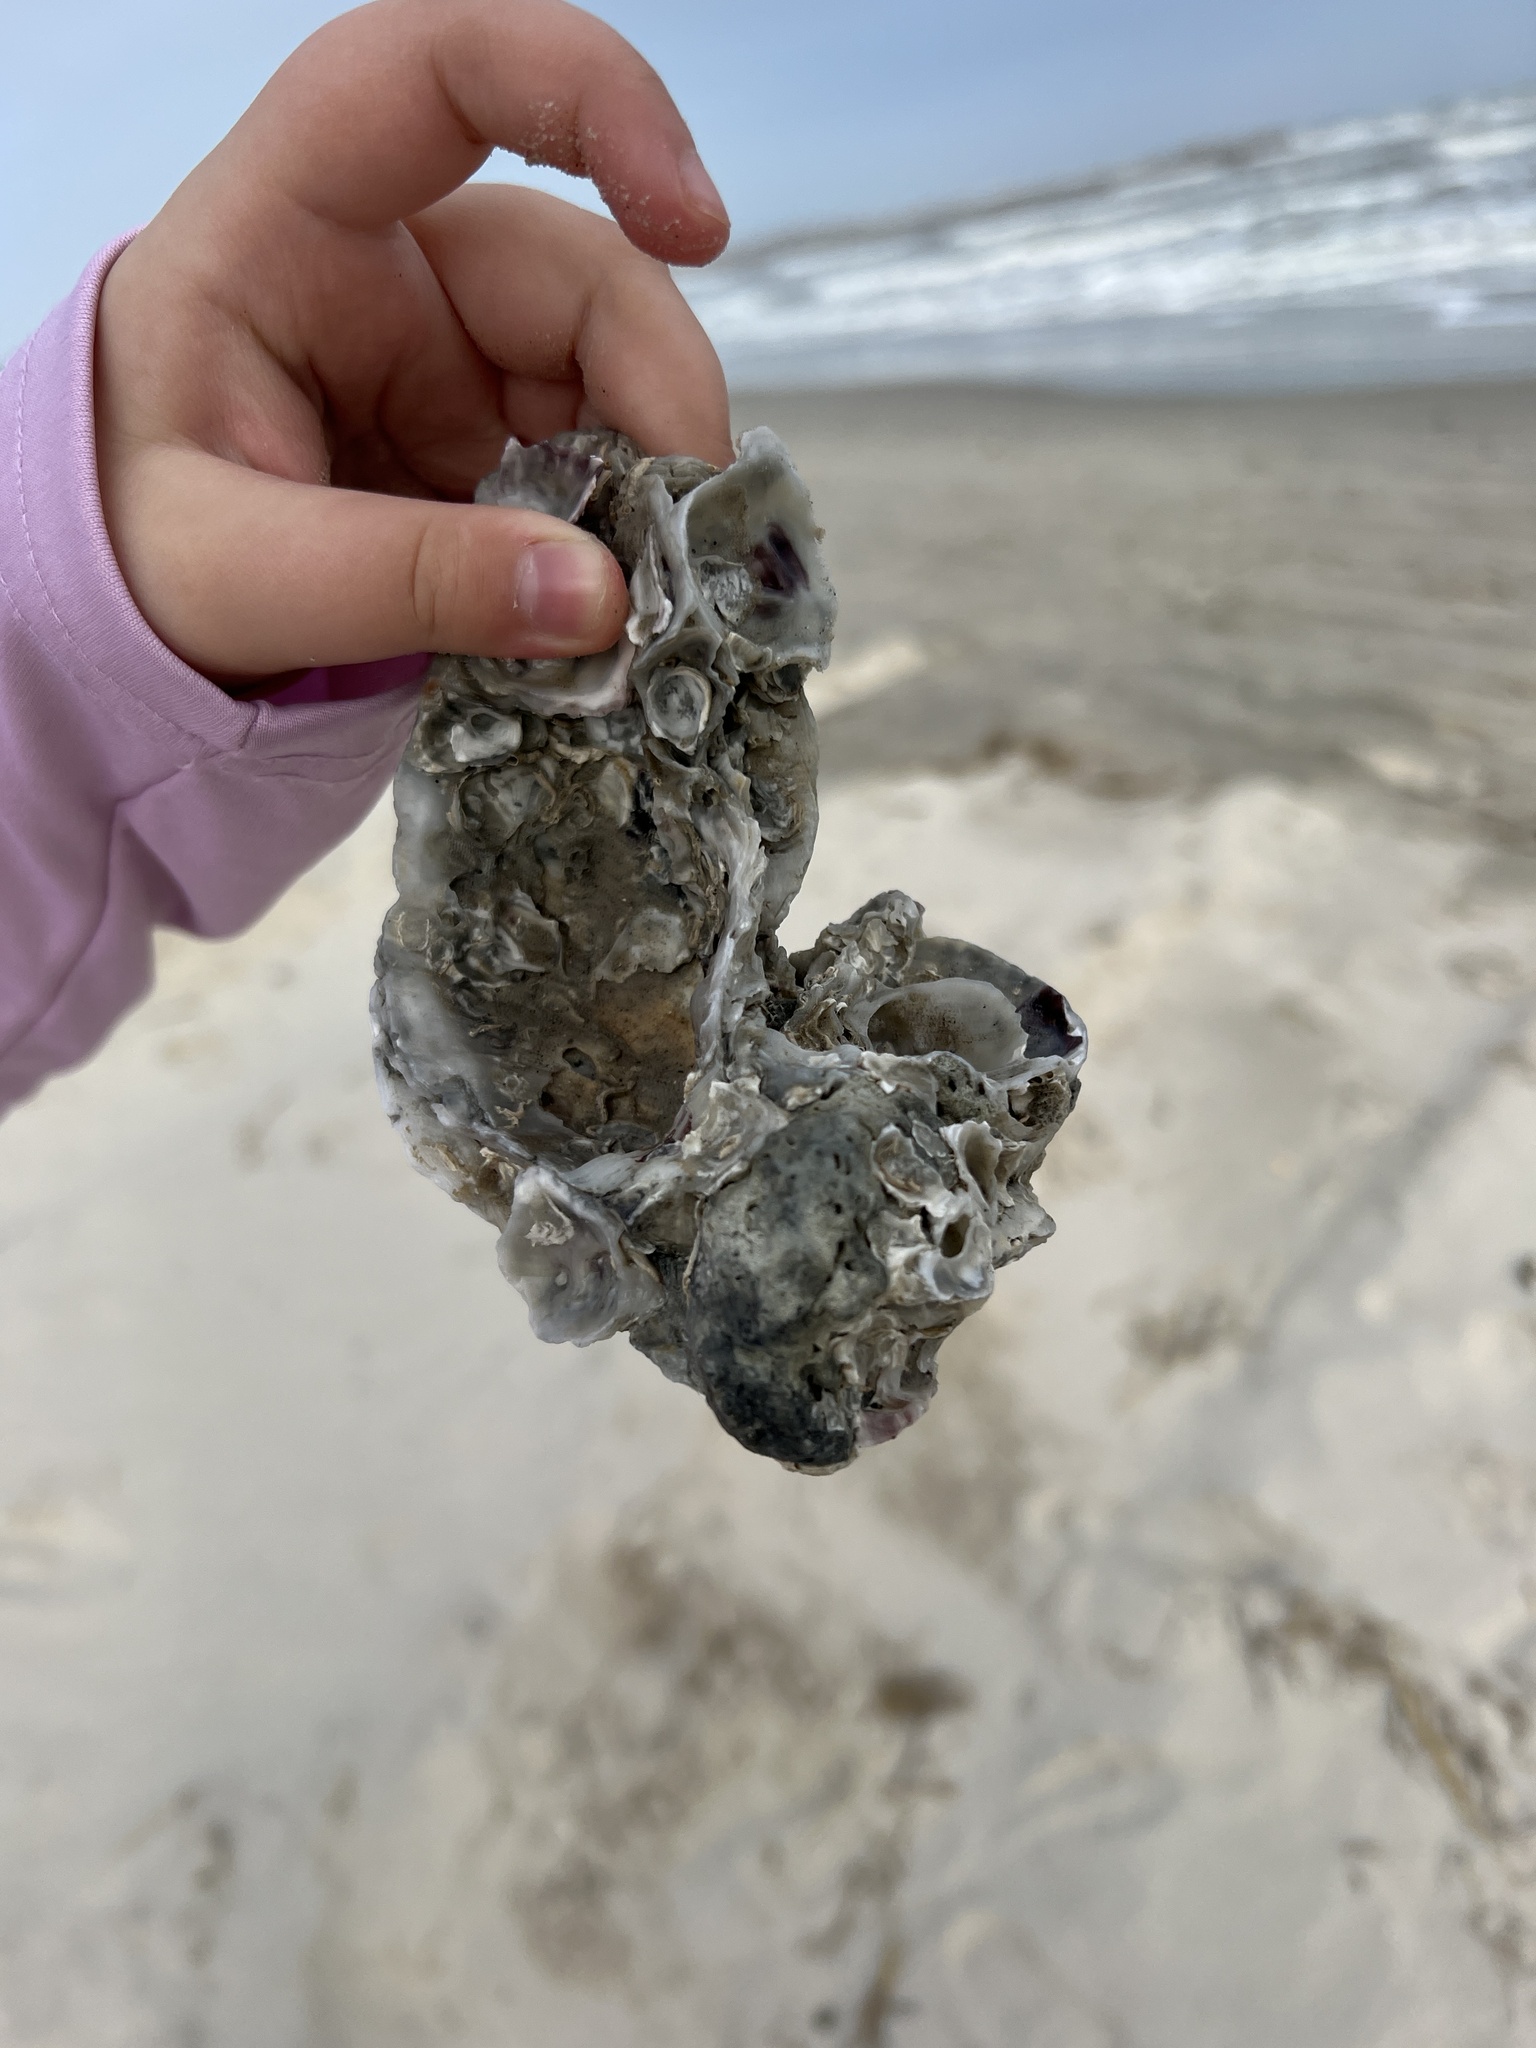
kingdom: Animalia
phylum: Mollusca
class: Bivalvia
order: Ostreida
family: Ostreidae
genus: Crassostrea
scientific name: Crassostrea virginica
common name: American oyster
